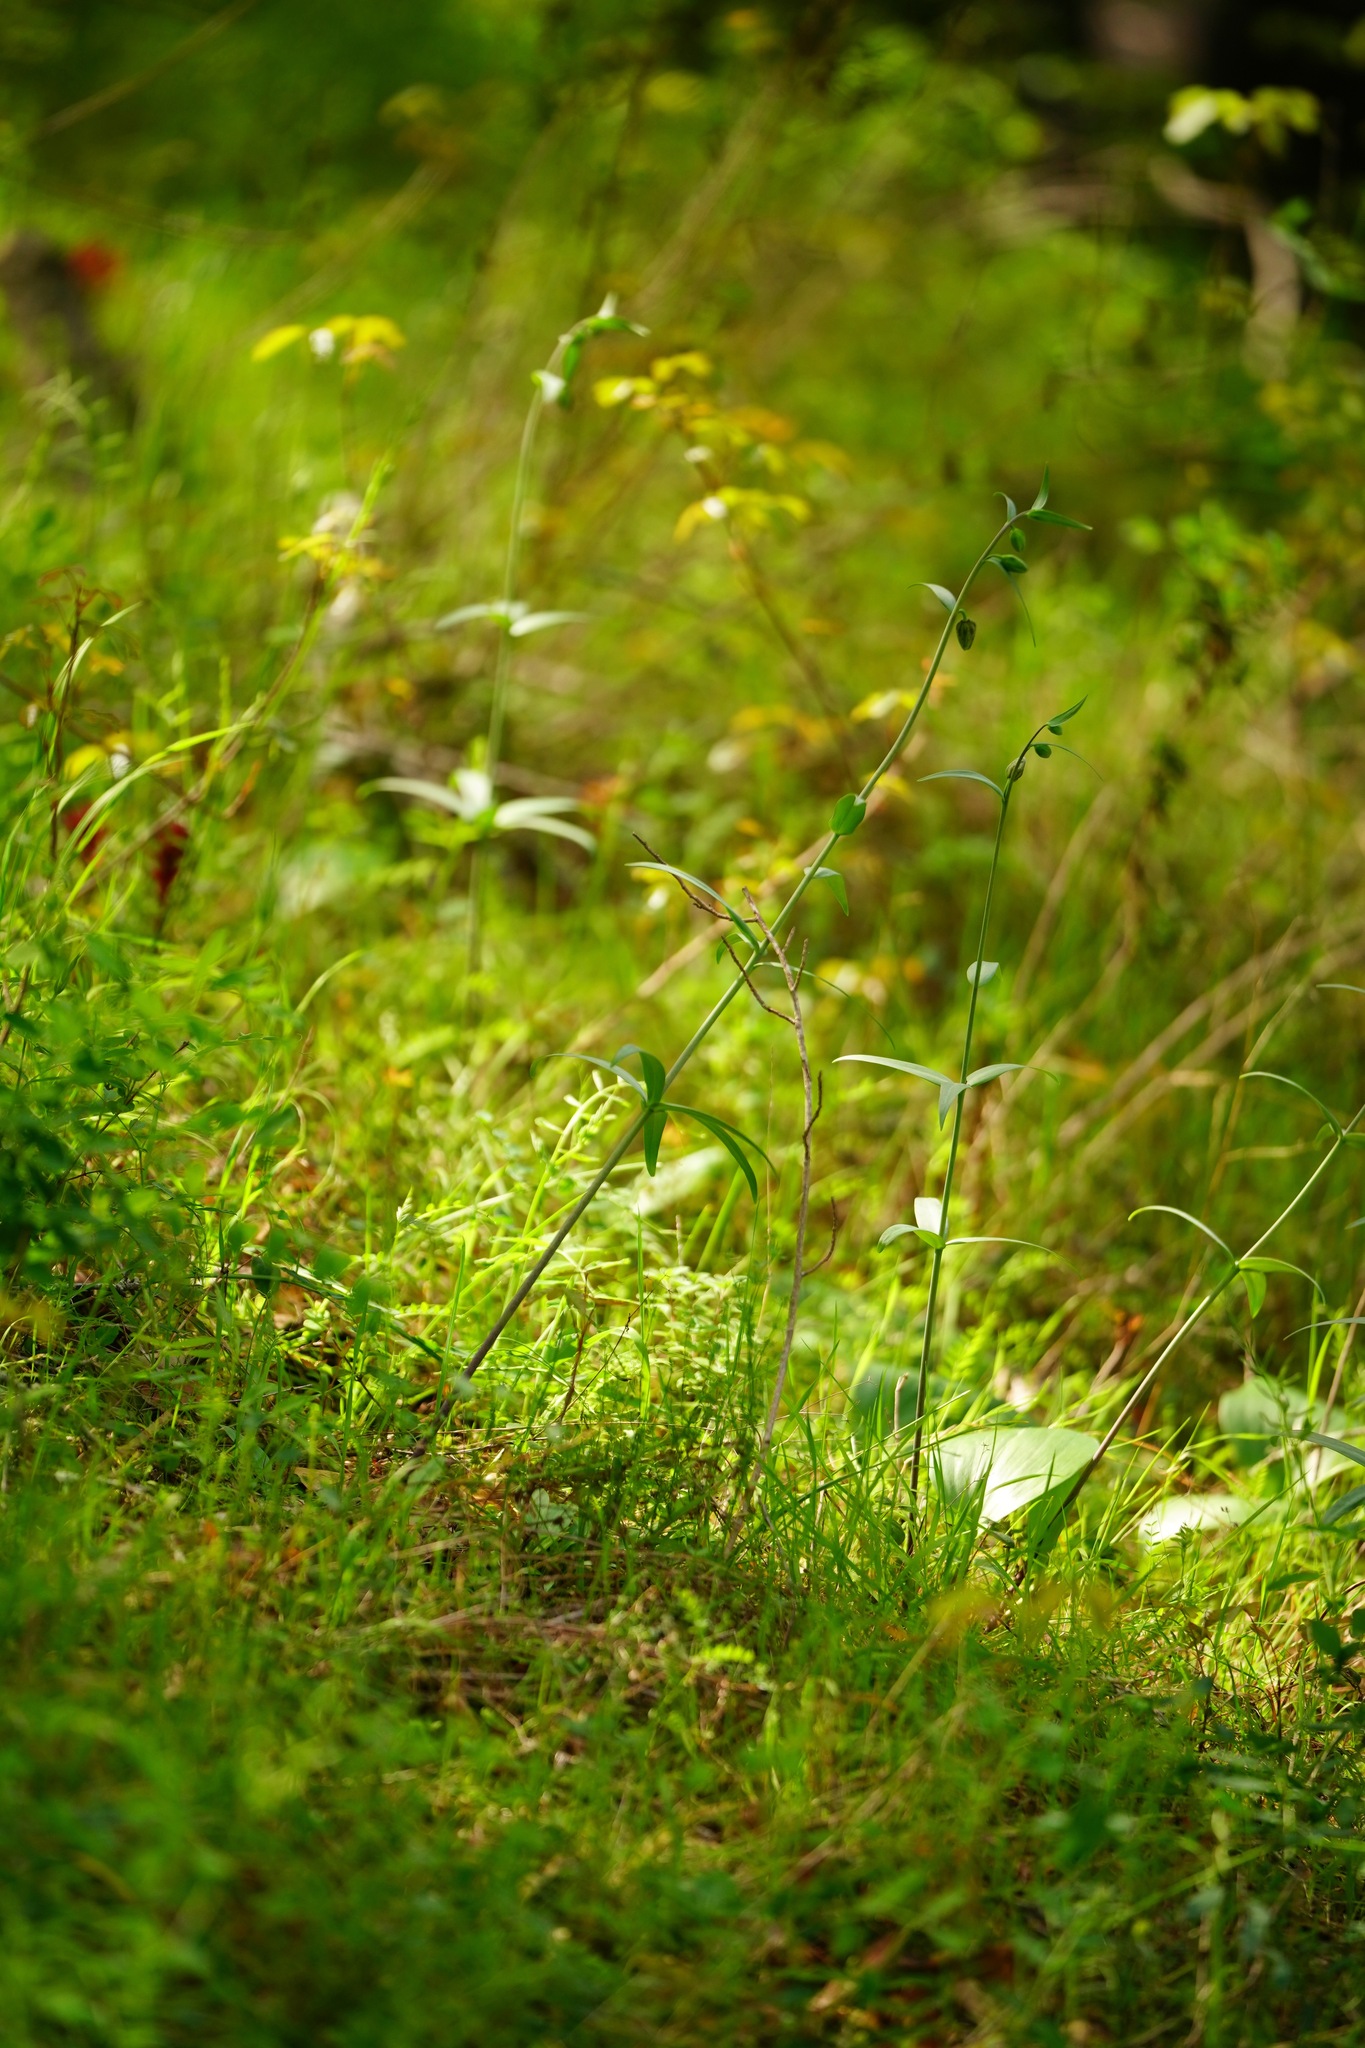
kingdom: Plantae
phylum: Tracheophyta
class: Liliopsida
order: Liliales
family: Liliaceae
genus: Fritillaria
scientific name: Fritillaria affinis
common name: Ojai fritillary
